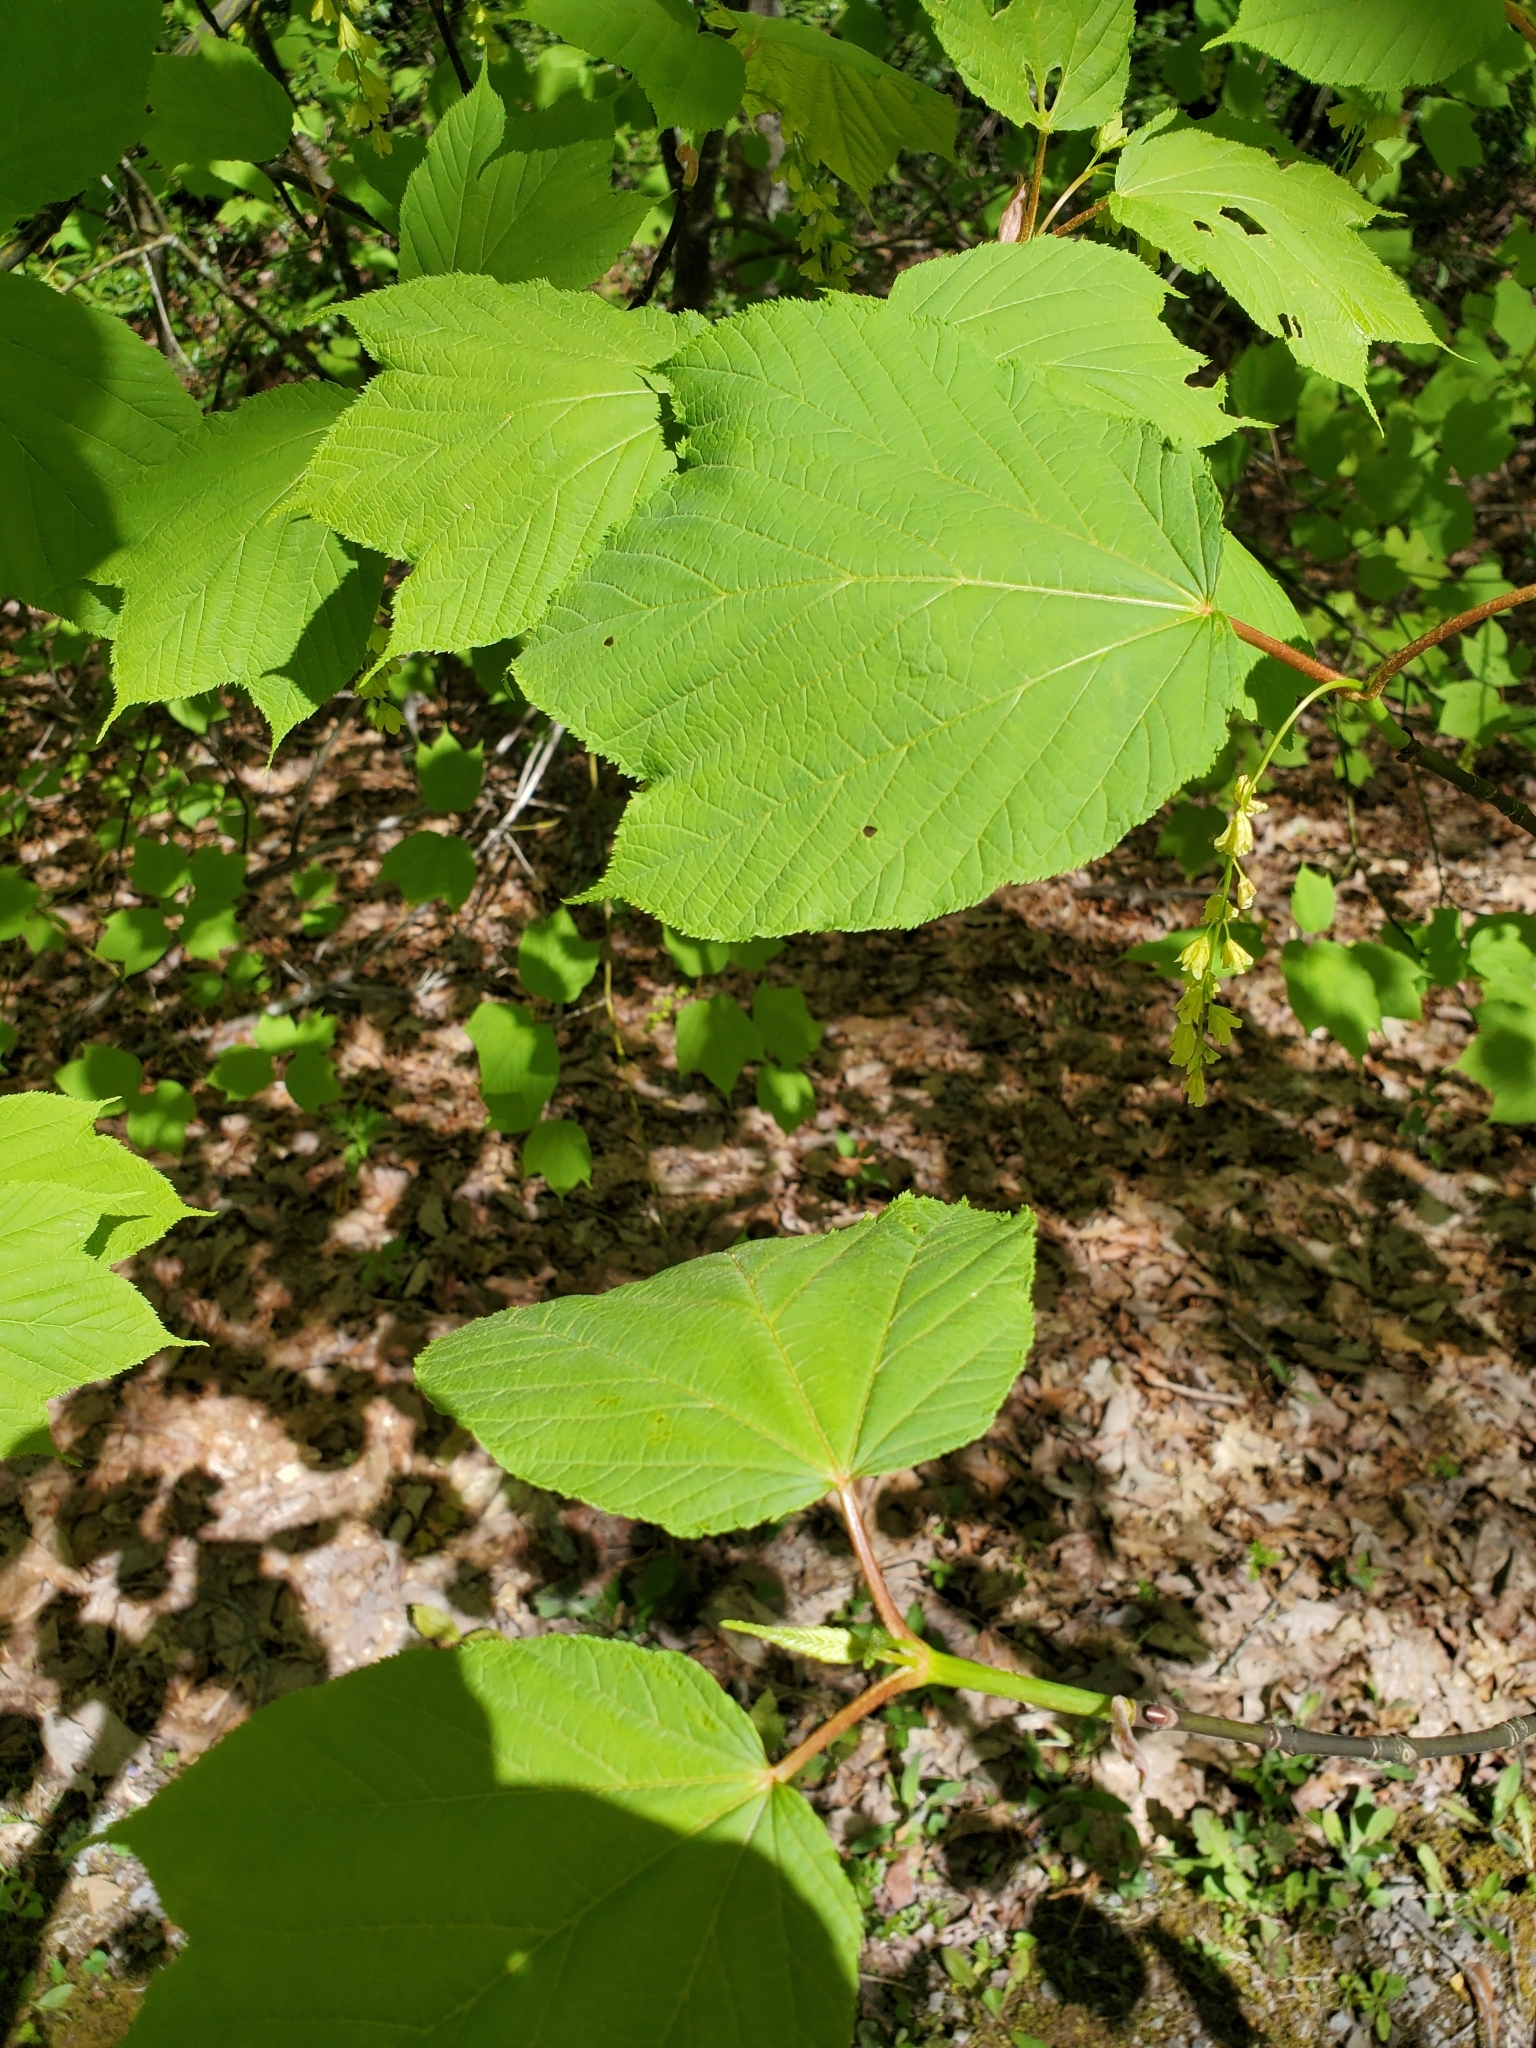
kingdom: Plantae
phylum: Tracheophyta
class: Magnoliopsida
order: Sapindales
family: Sapindaceae
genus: Acer
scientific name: Acer pensylvanicum
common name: Moosewood
